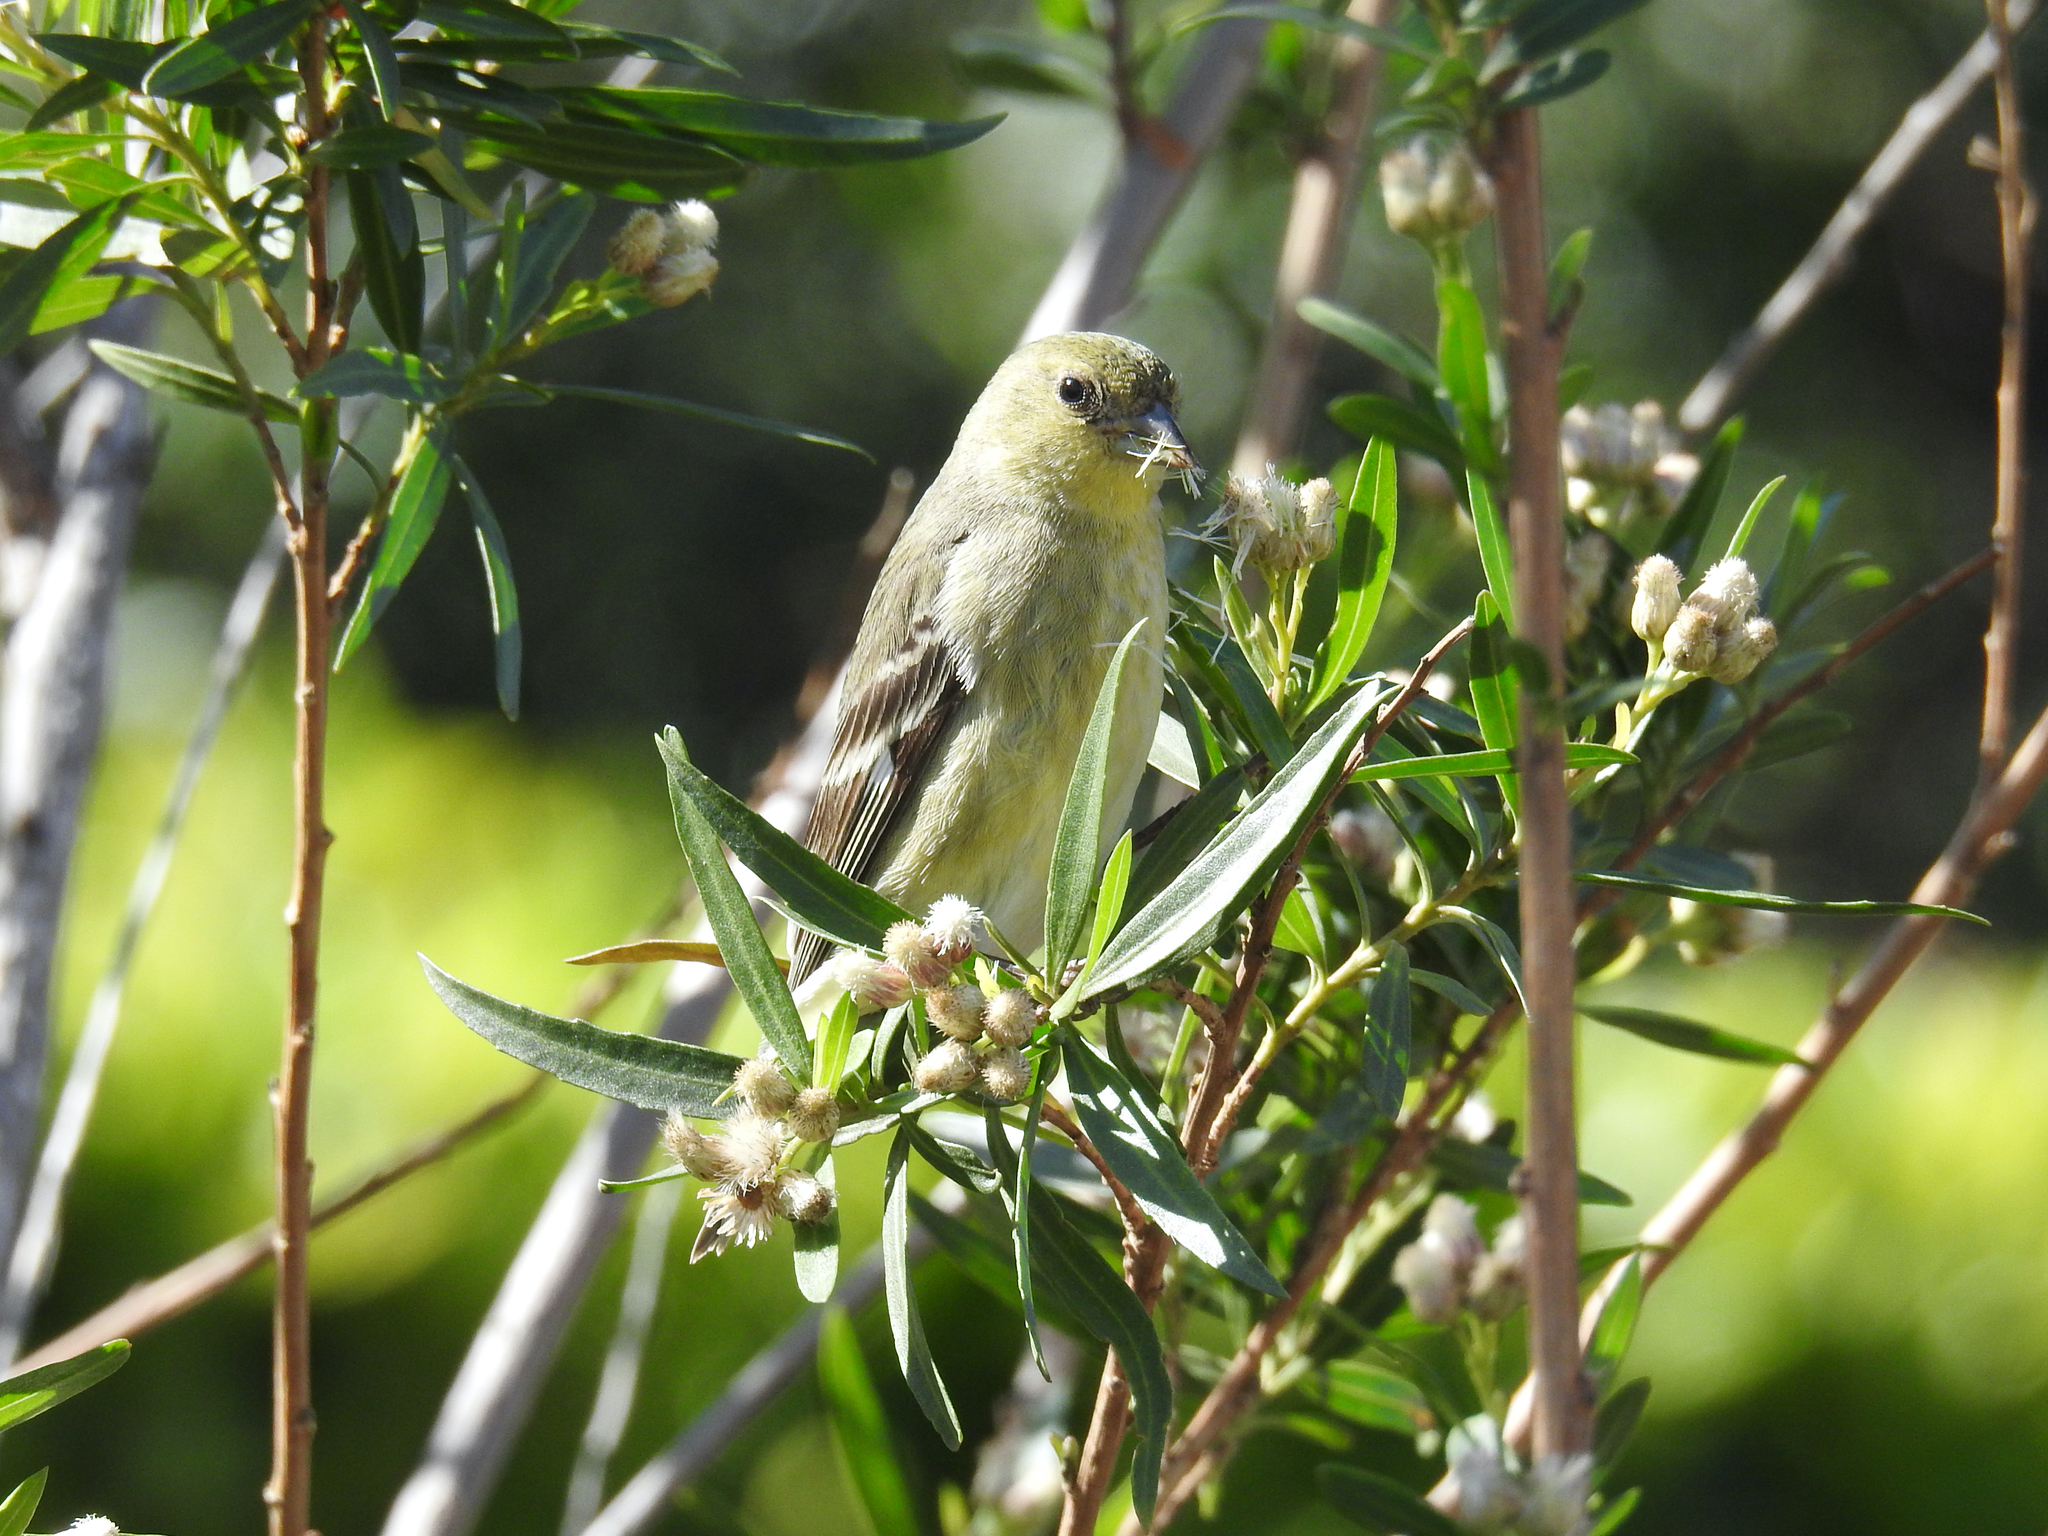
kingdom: Animalia
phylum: Chordata
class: Aves
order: Passeriformes
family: Fringillidae
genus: Spinus
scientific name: Spinus psaltria
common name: Lesser goldfinch
